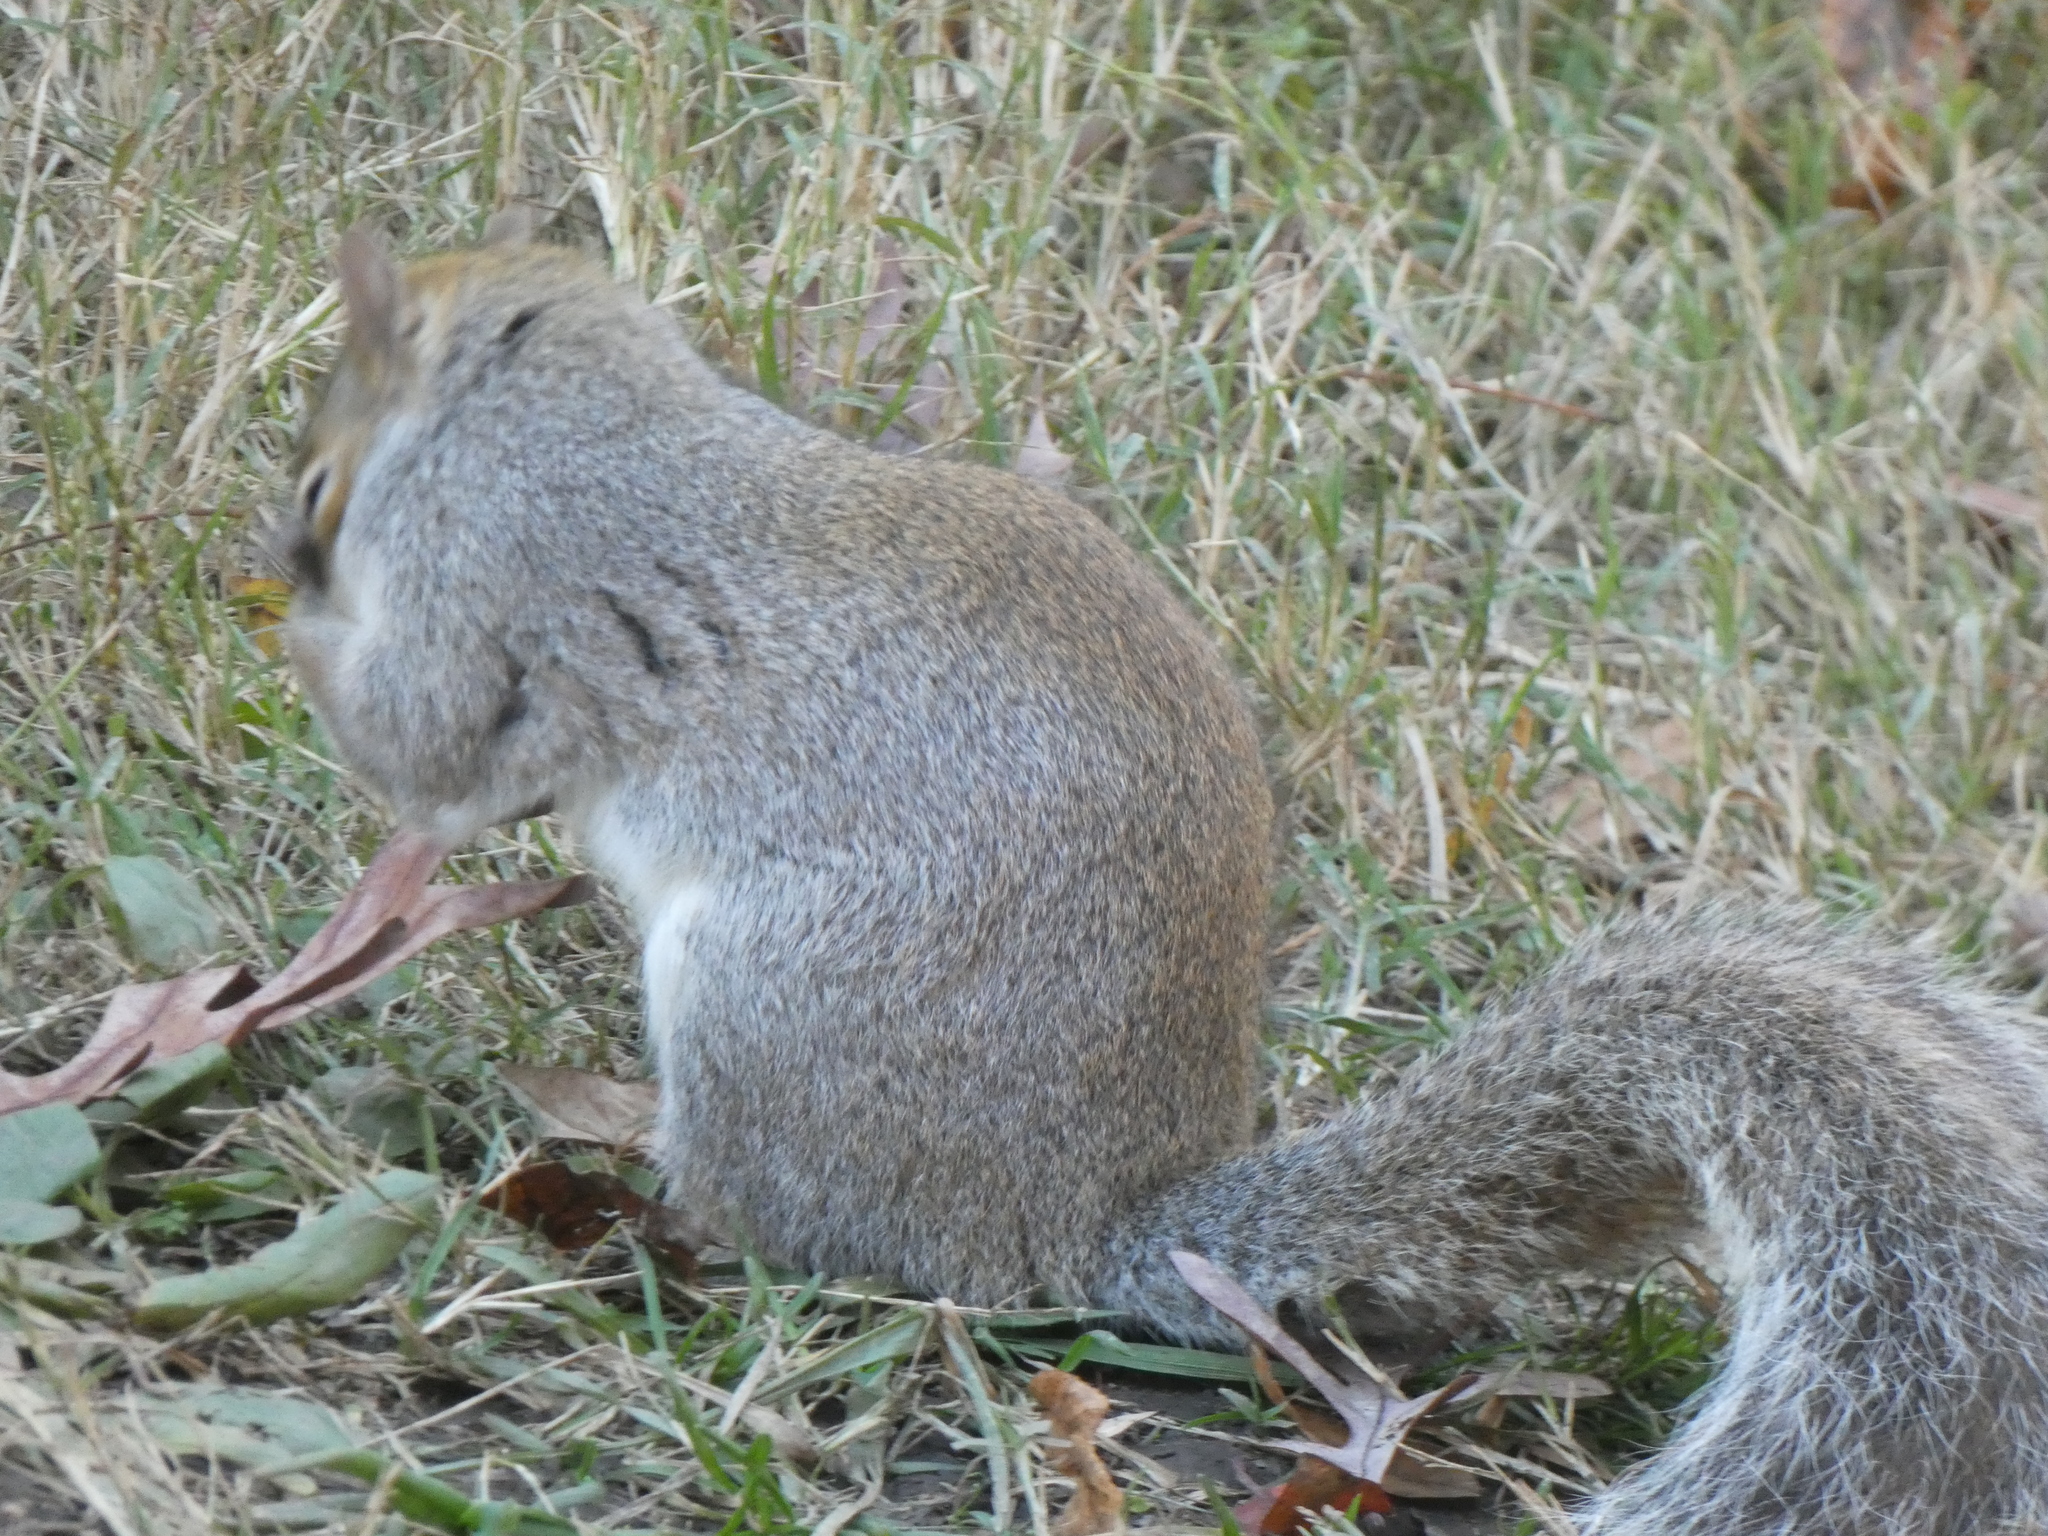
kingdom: Animalia
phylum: Chordata
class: Mammalia
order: Rodentia
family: Sciuridae
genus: Sciurus
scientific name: Sciurus carolinensis
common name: Eastern gray squirrel
